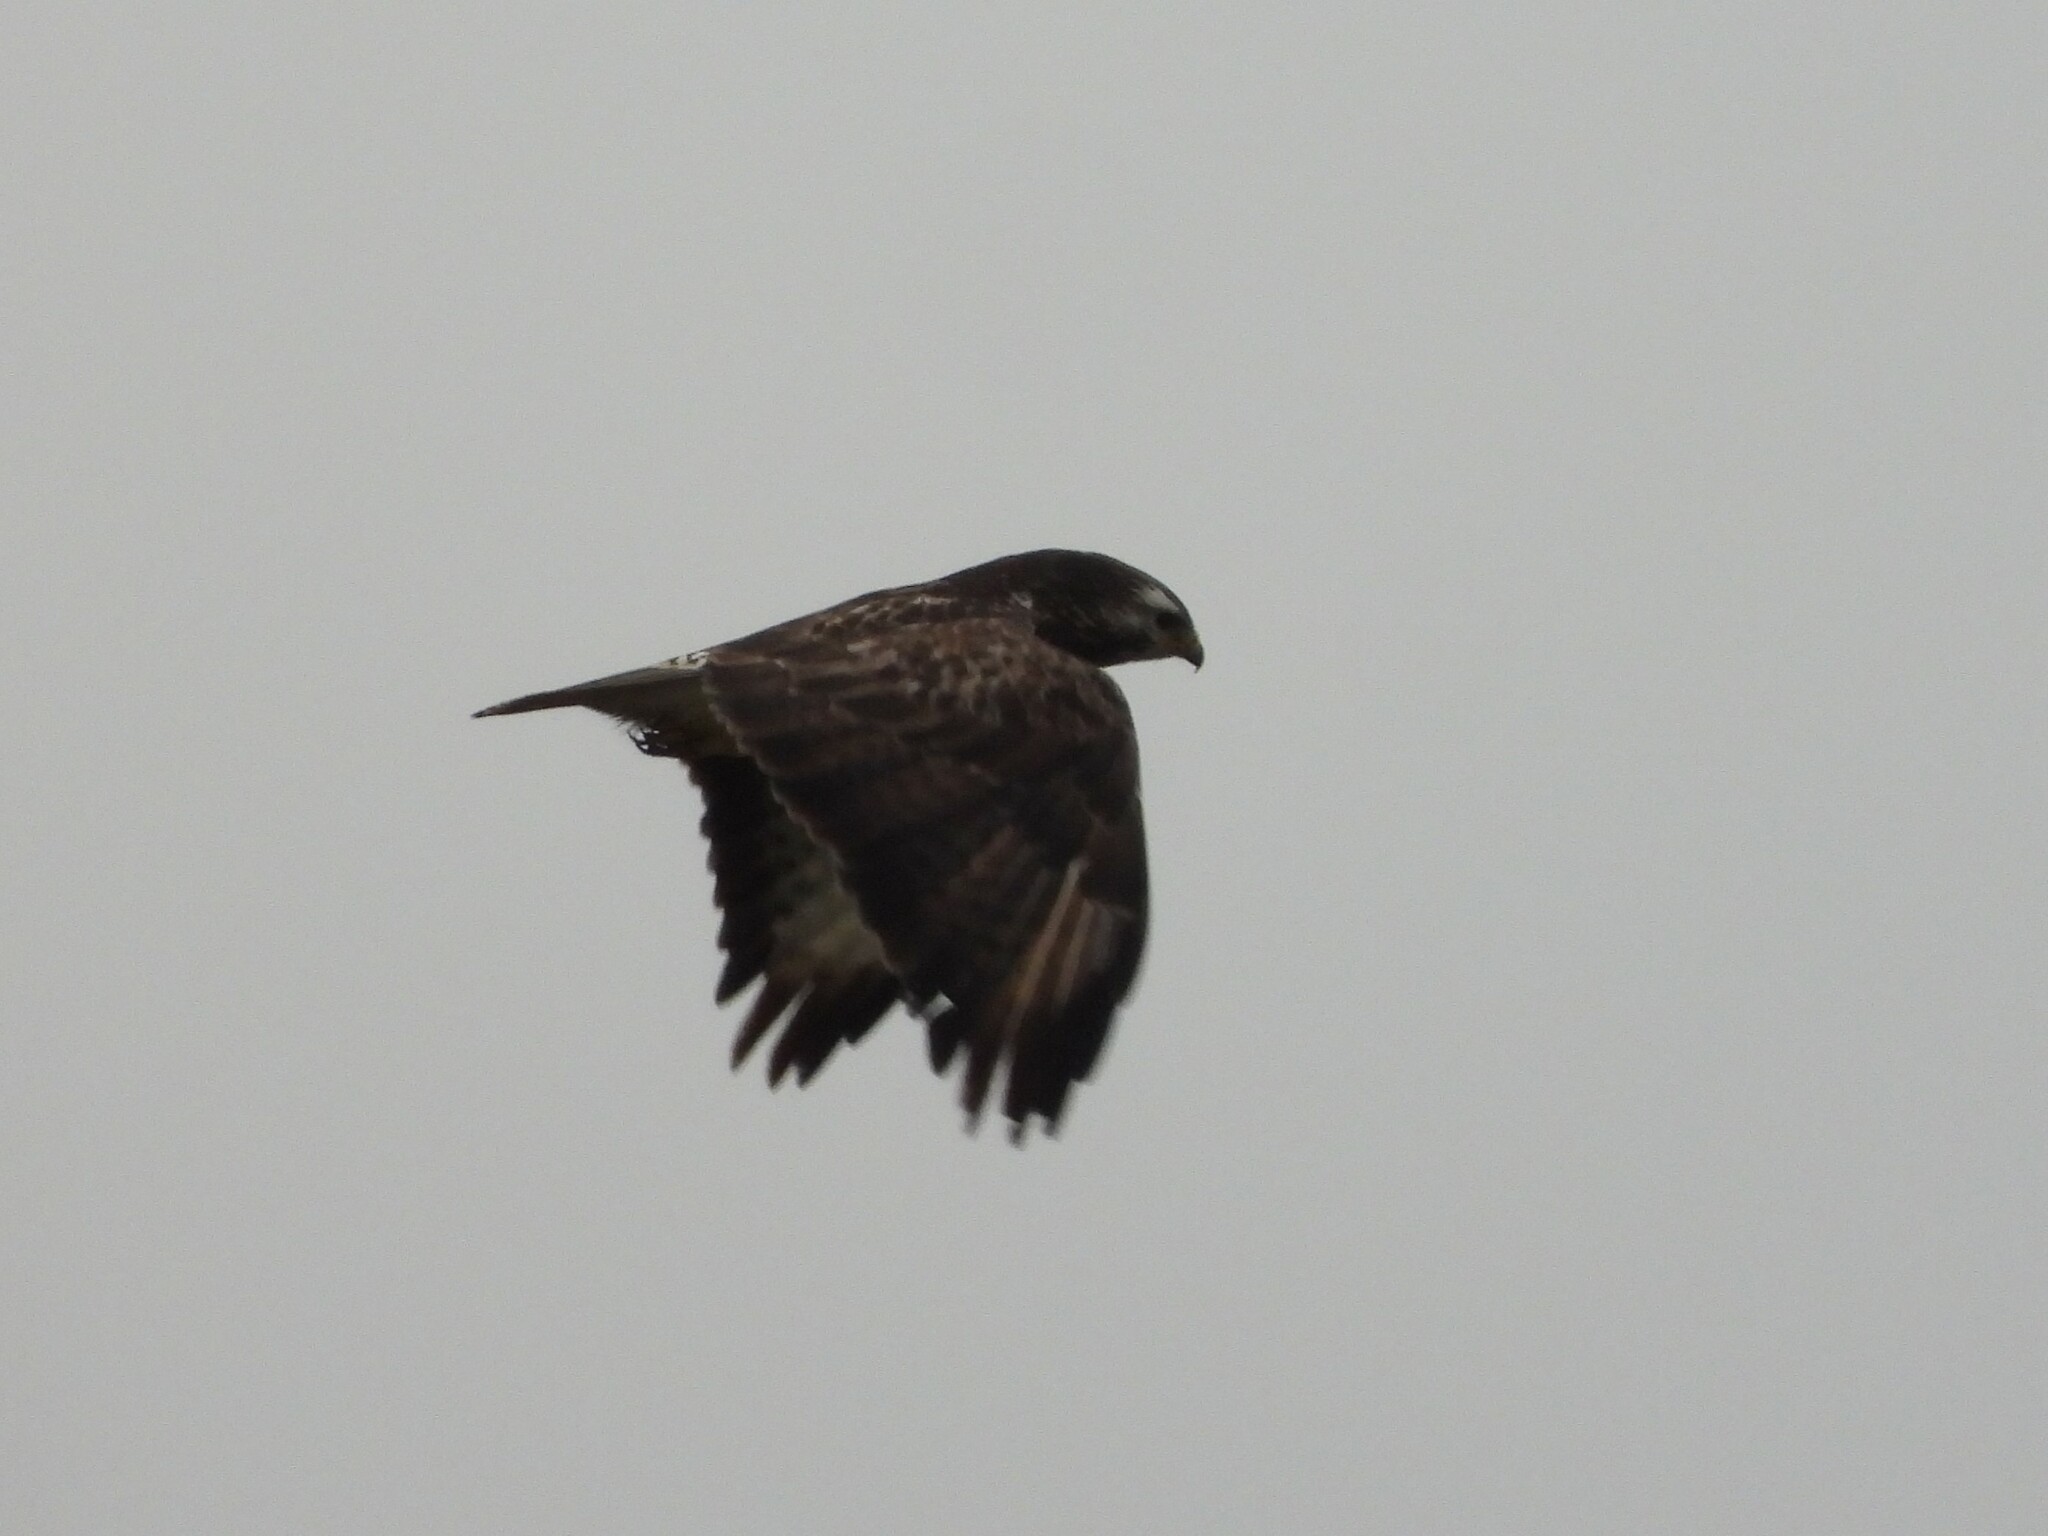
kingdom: Animalia
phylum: Chordata
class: Aves
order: Accipitriformes
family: Accipitridae
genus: Buteo
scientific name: Buteo buteo
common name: Common buzzard
